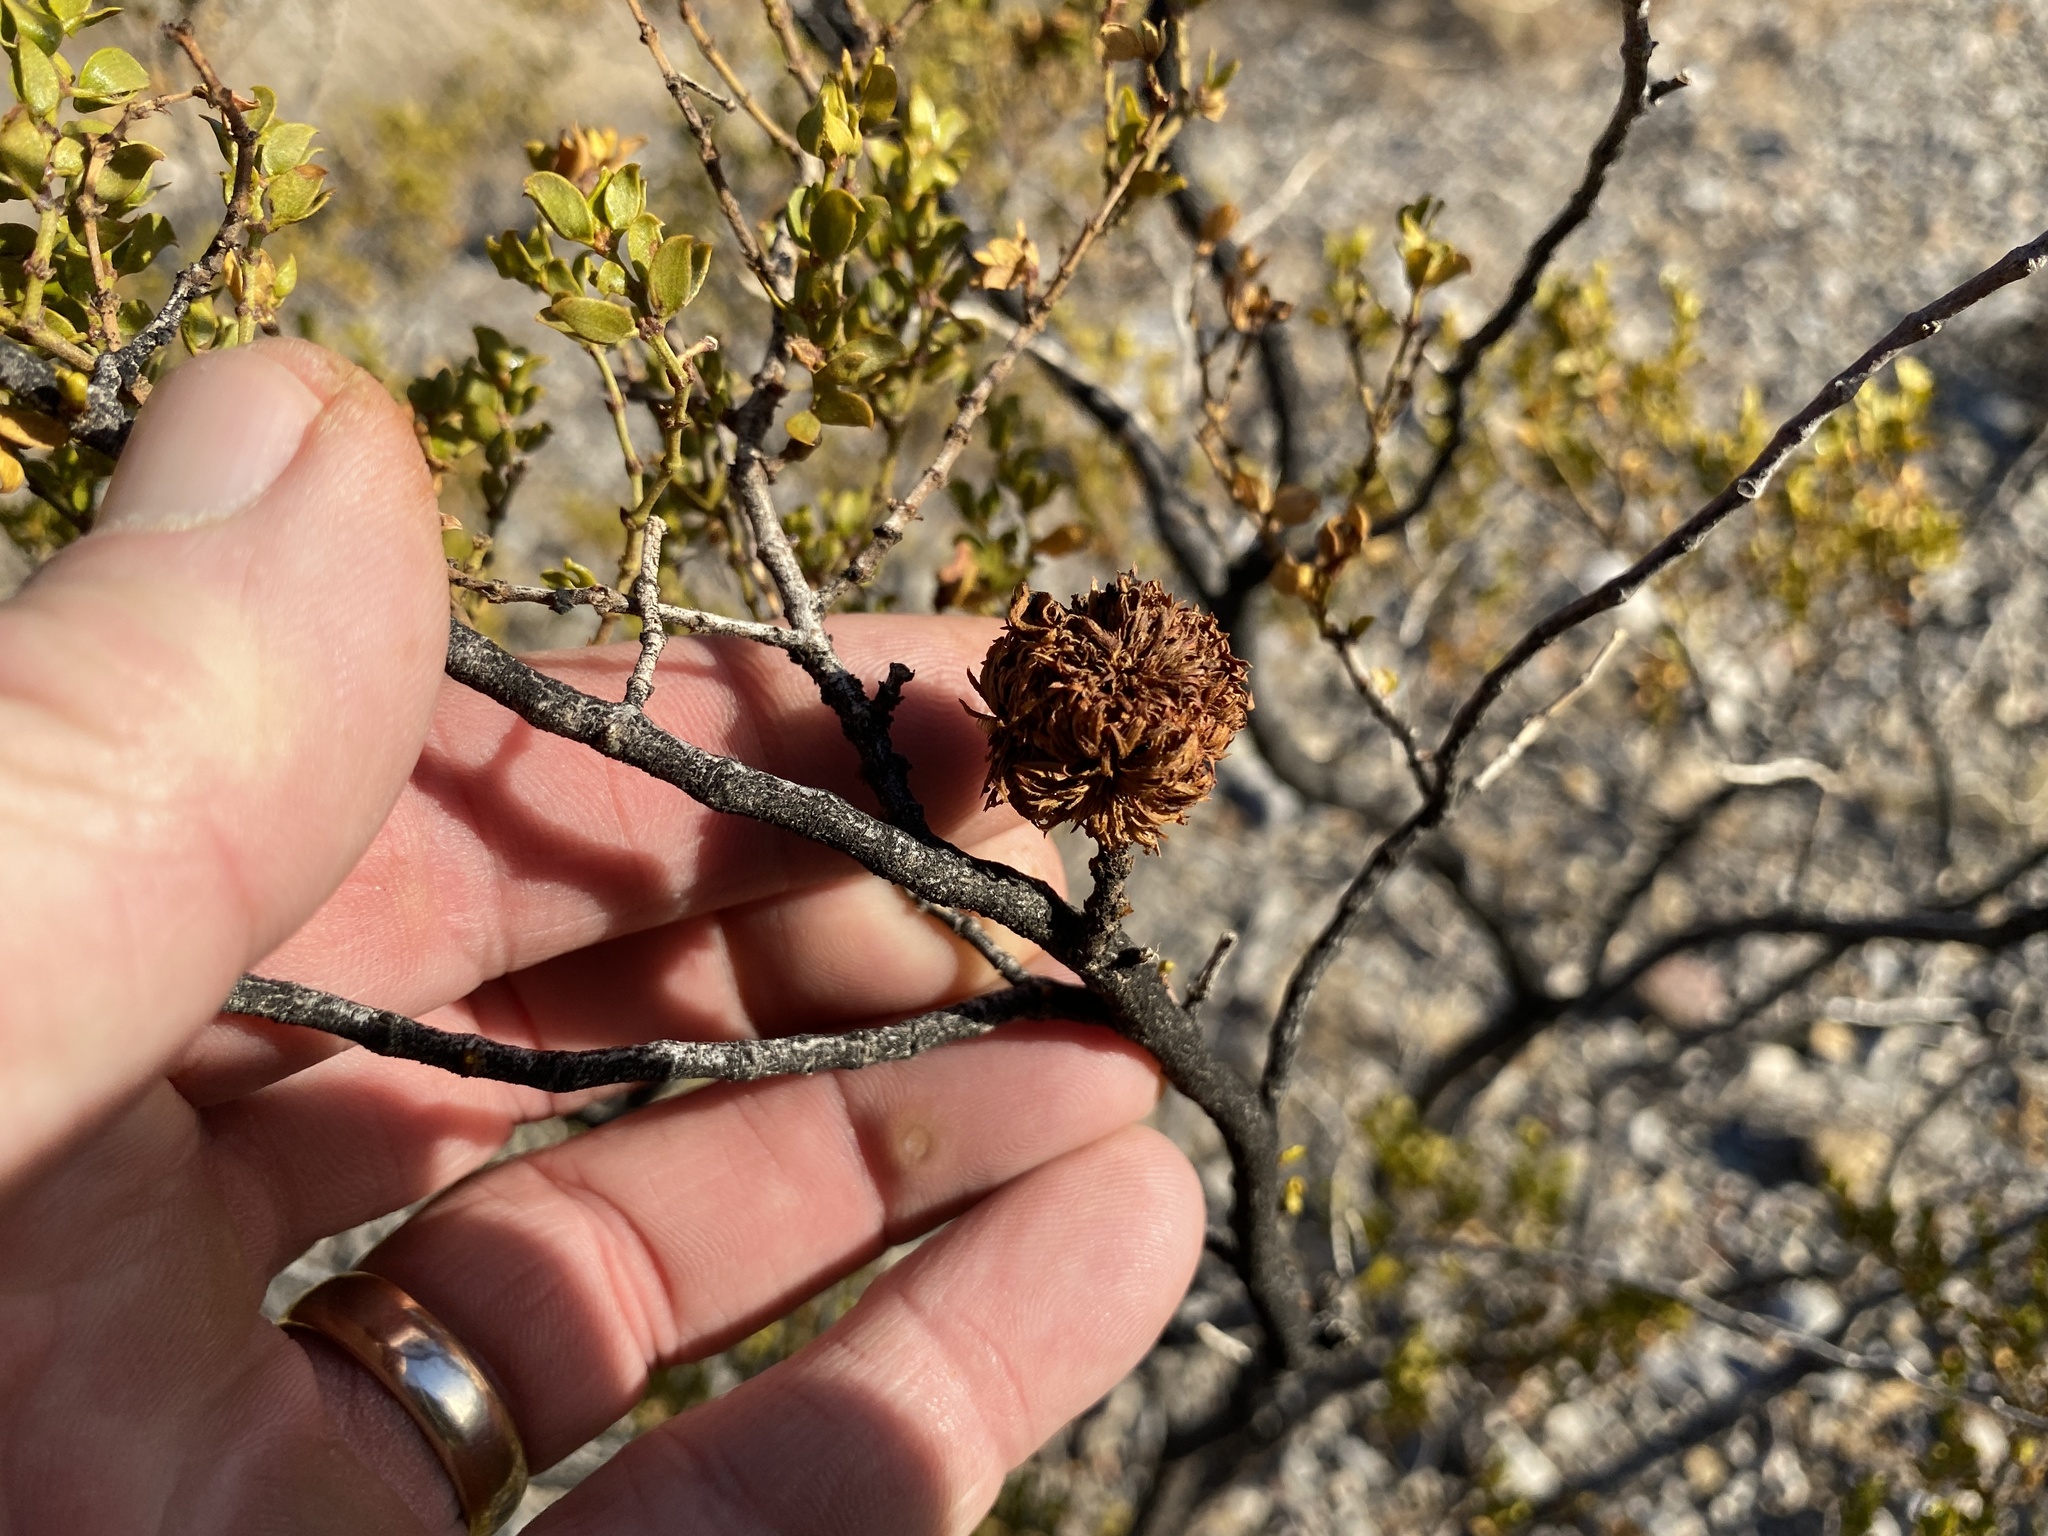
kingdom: Animalia
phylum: Arthropoda
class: Insecta
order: Diptera
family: Cecidomyiidae
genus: Asphondylia
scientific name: Asphondylia auripila
